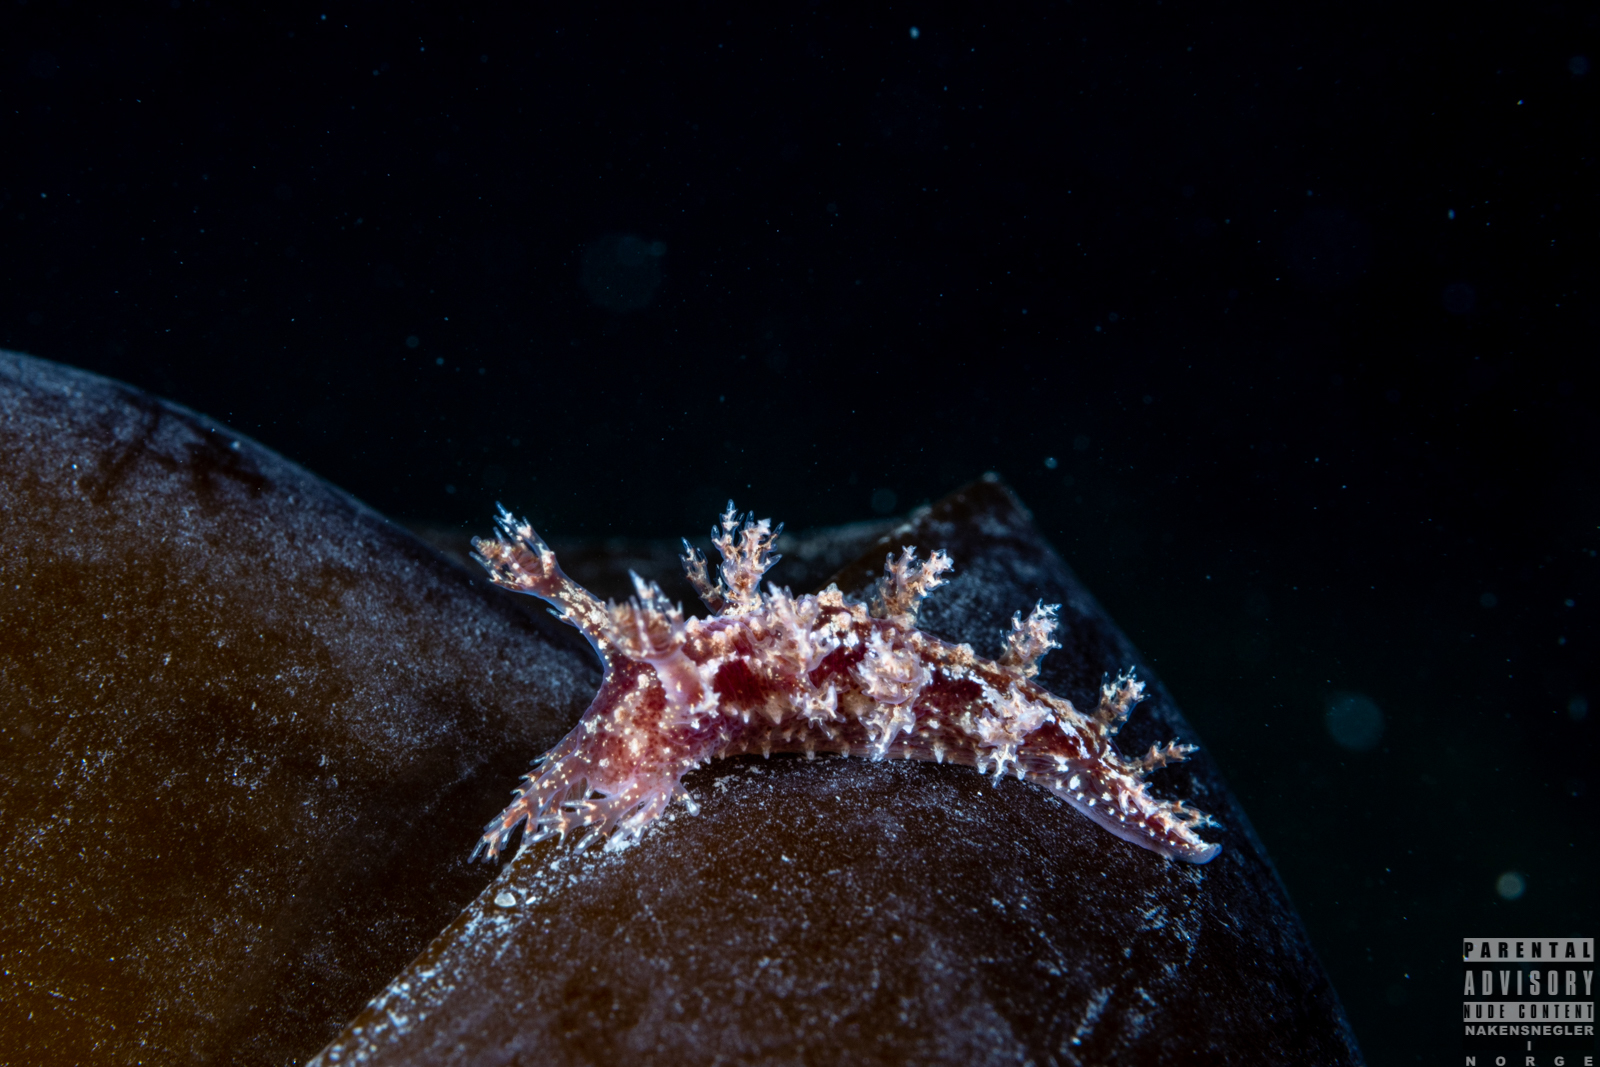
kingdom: Animalia
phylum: Mollusca
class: Gastropoda
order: Nudibranchia
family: Dendronotidae
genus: Dendronotus
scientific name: Dendronotus frondosus
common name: Bushy-backed nudibranch
